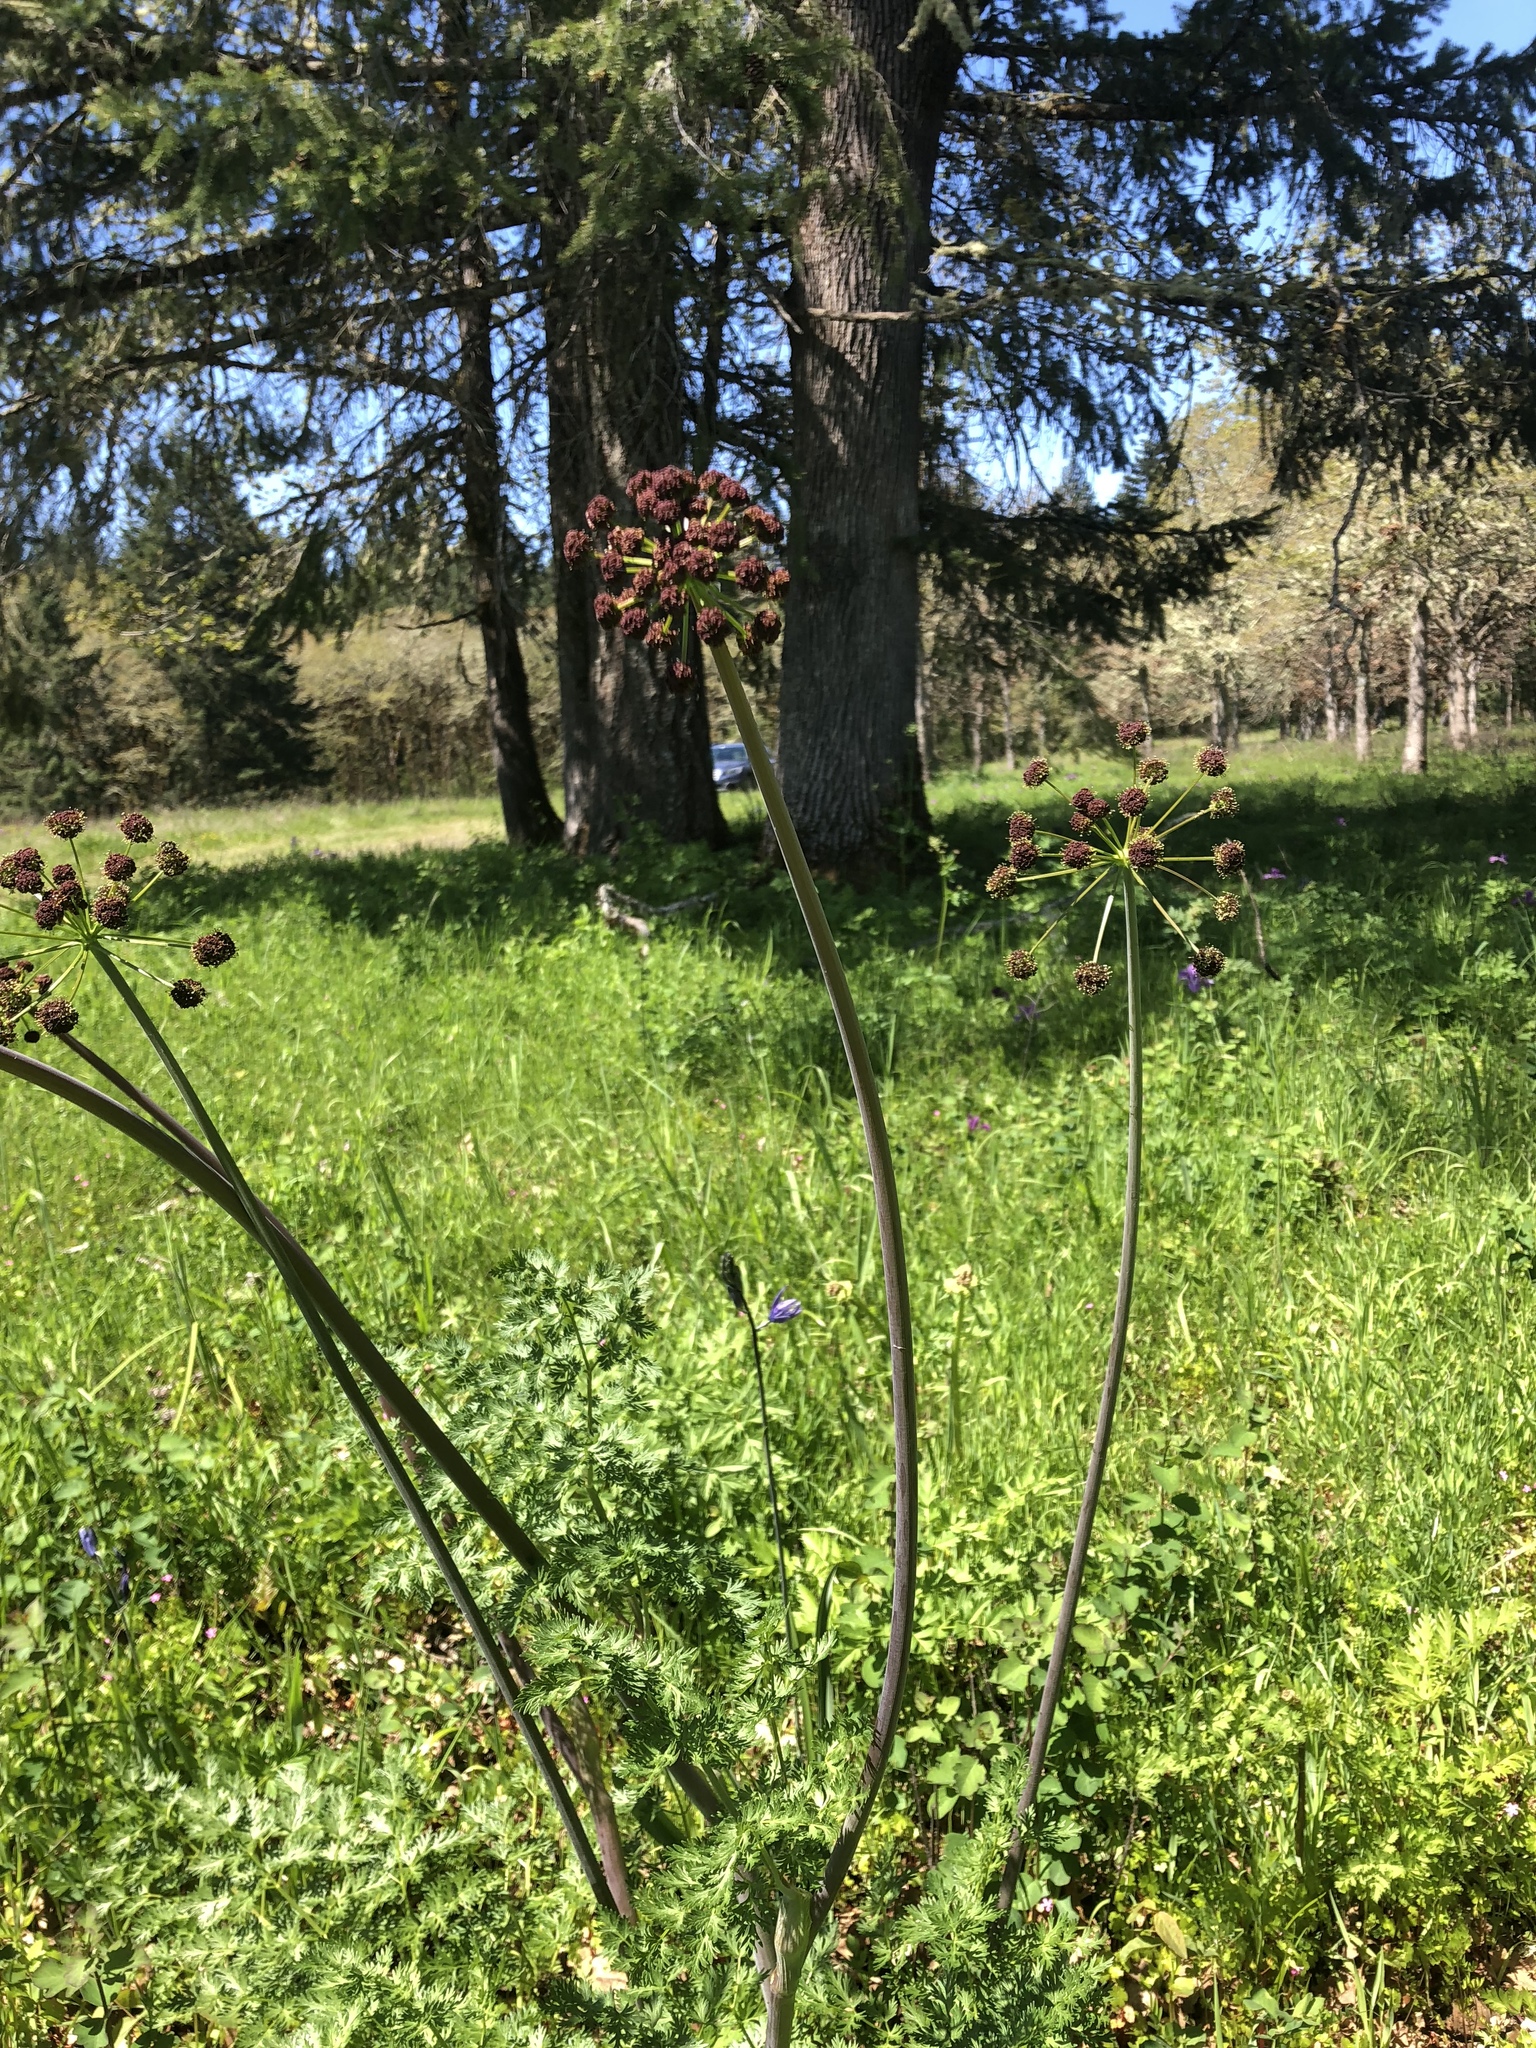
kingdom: Plantae
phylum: Tracheophyta
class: Magnoliopsida
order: Apiales
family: Apiaceae
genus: Lomatium
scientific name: Lomatium dissectum
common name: Lomatium
